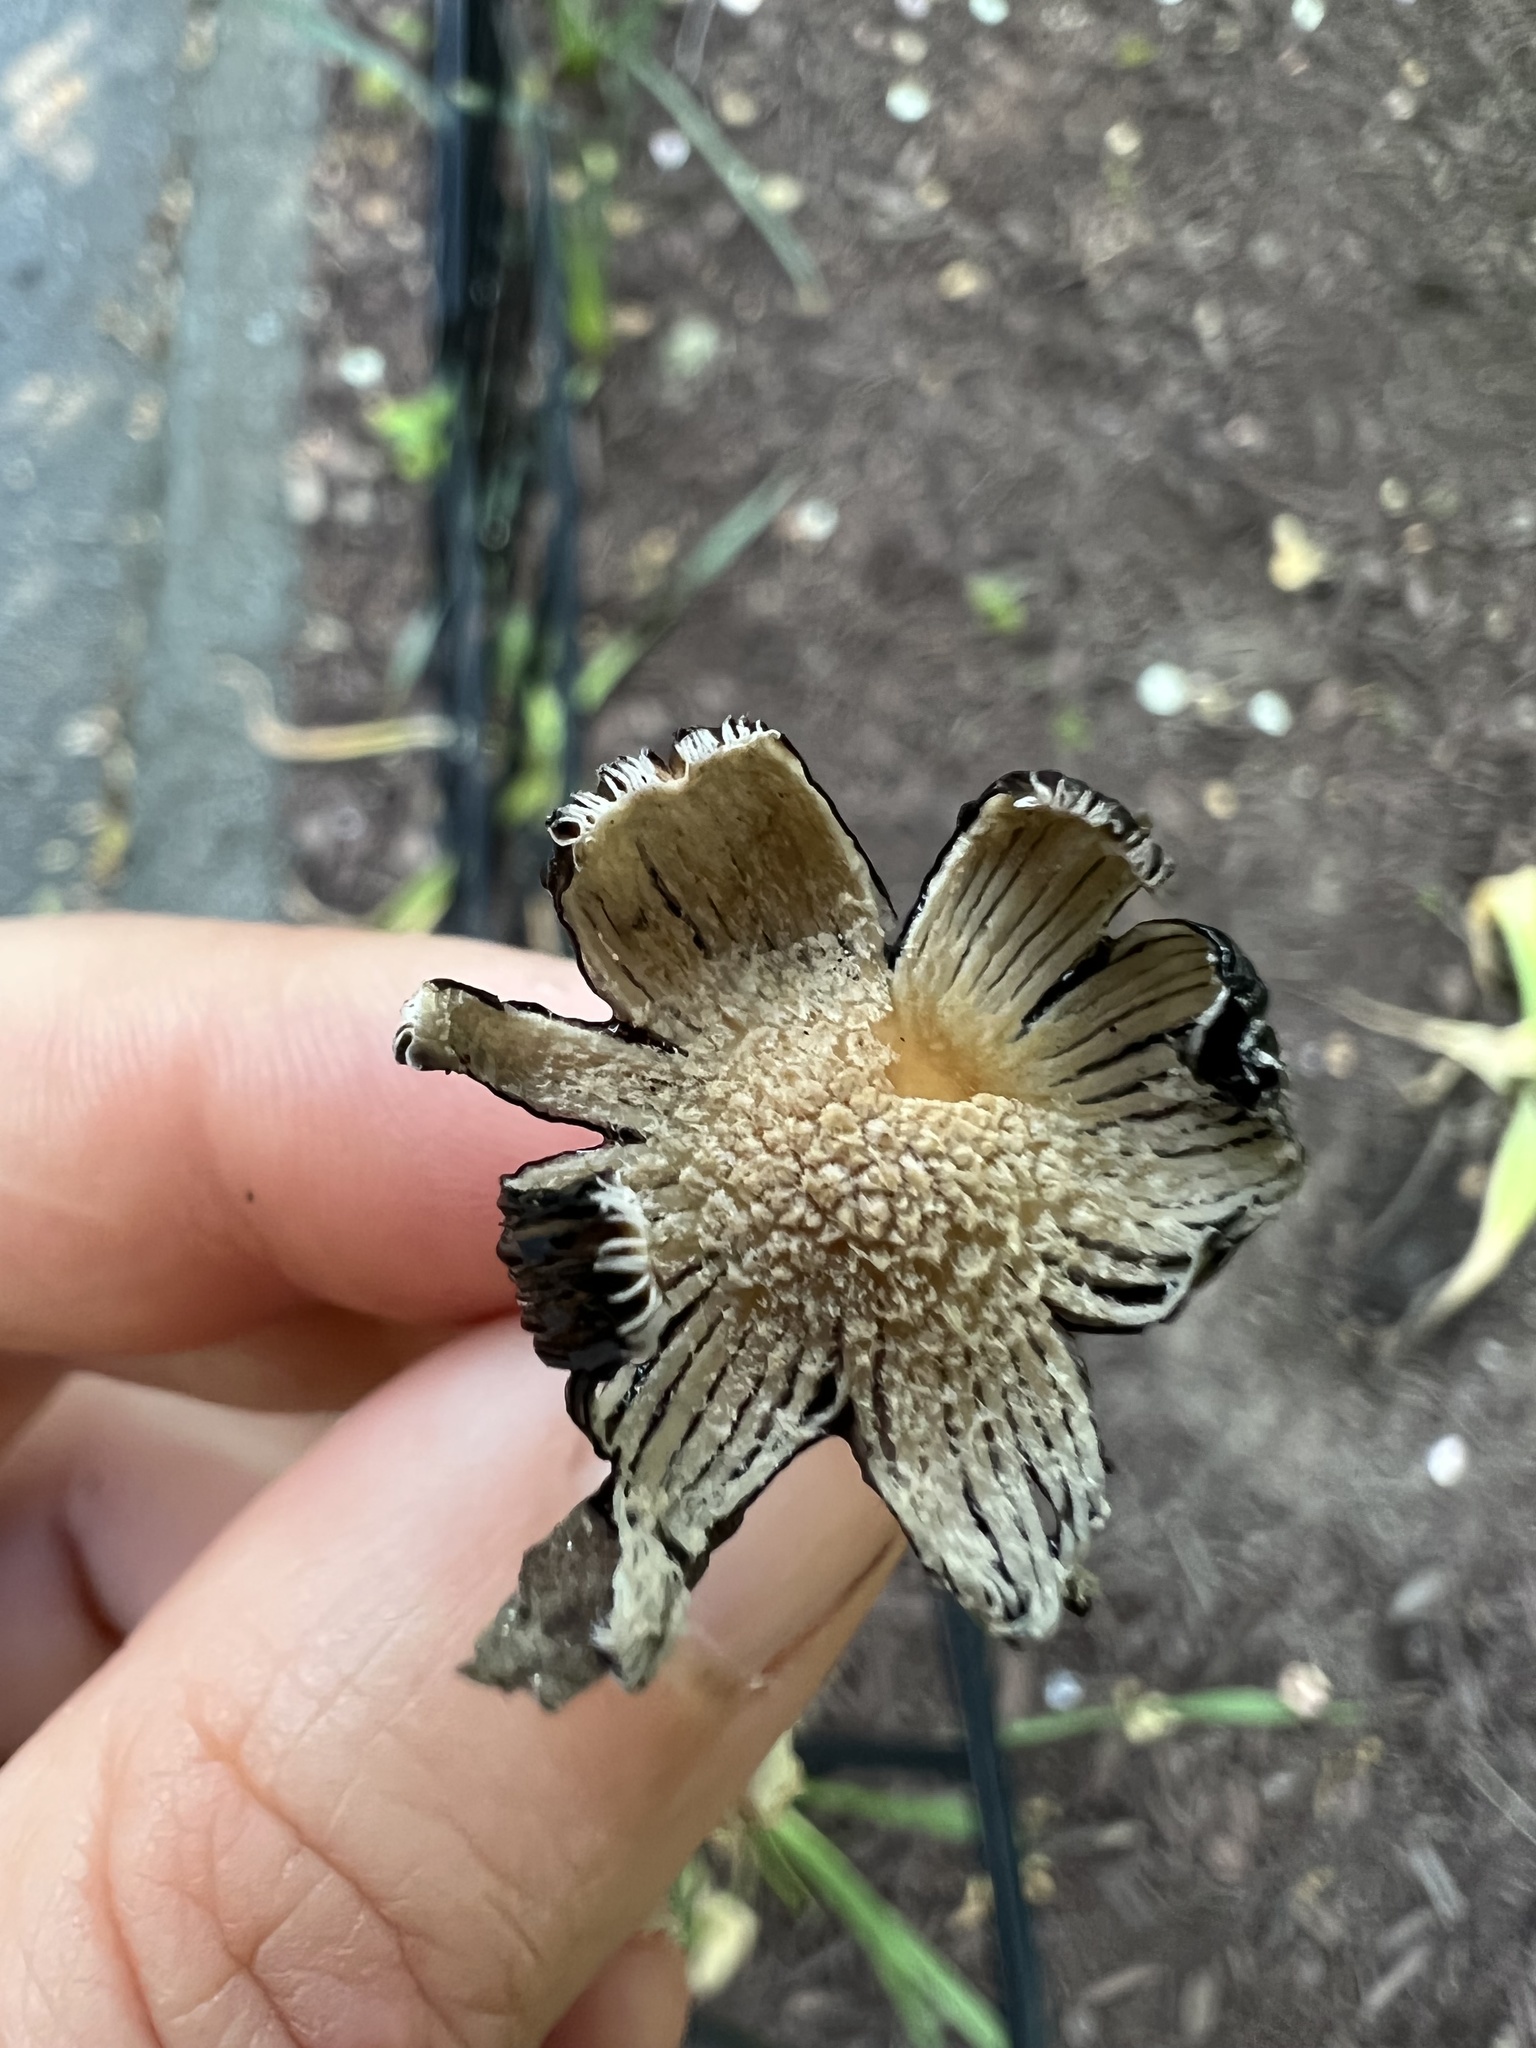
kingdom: Fungi
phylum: Basidiomycota
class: Agaricomycetes
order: Agaricales
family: Psathyrellaceae
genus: Coprinellus
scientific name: Coprinellus flocculosus
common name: Flocculose inkcap
